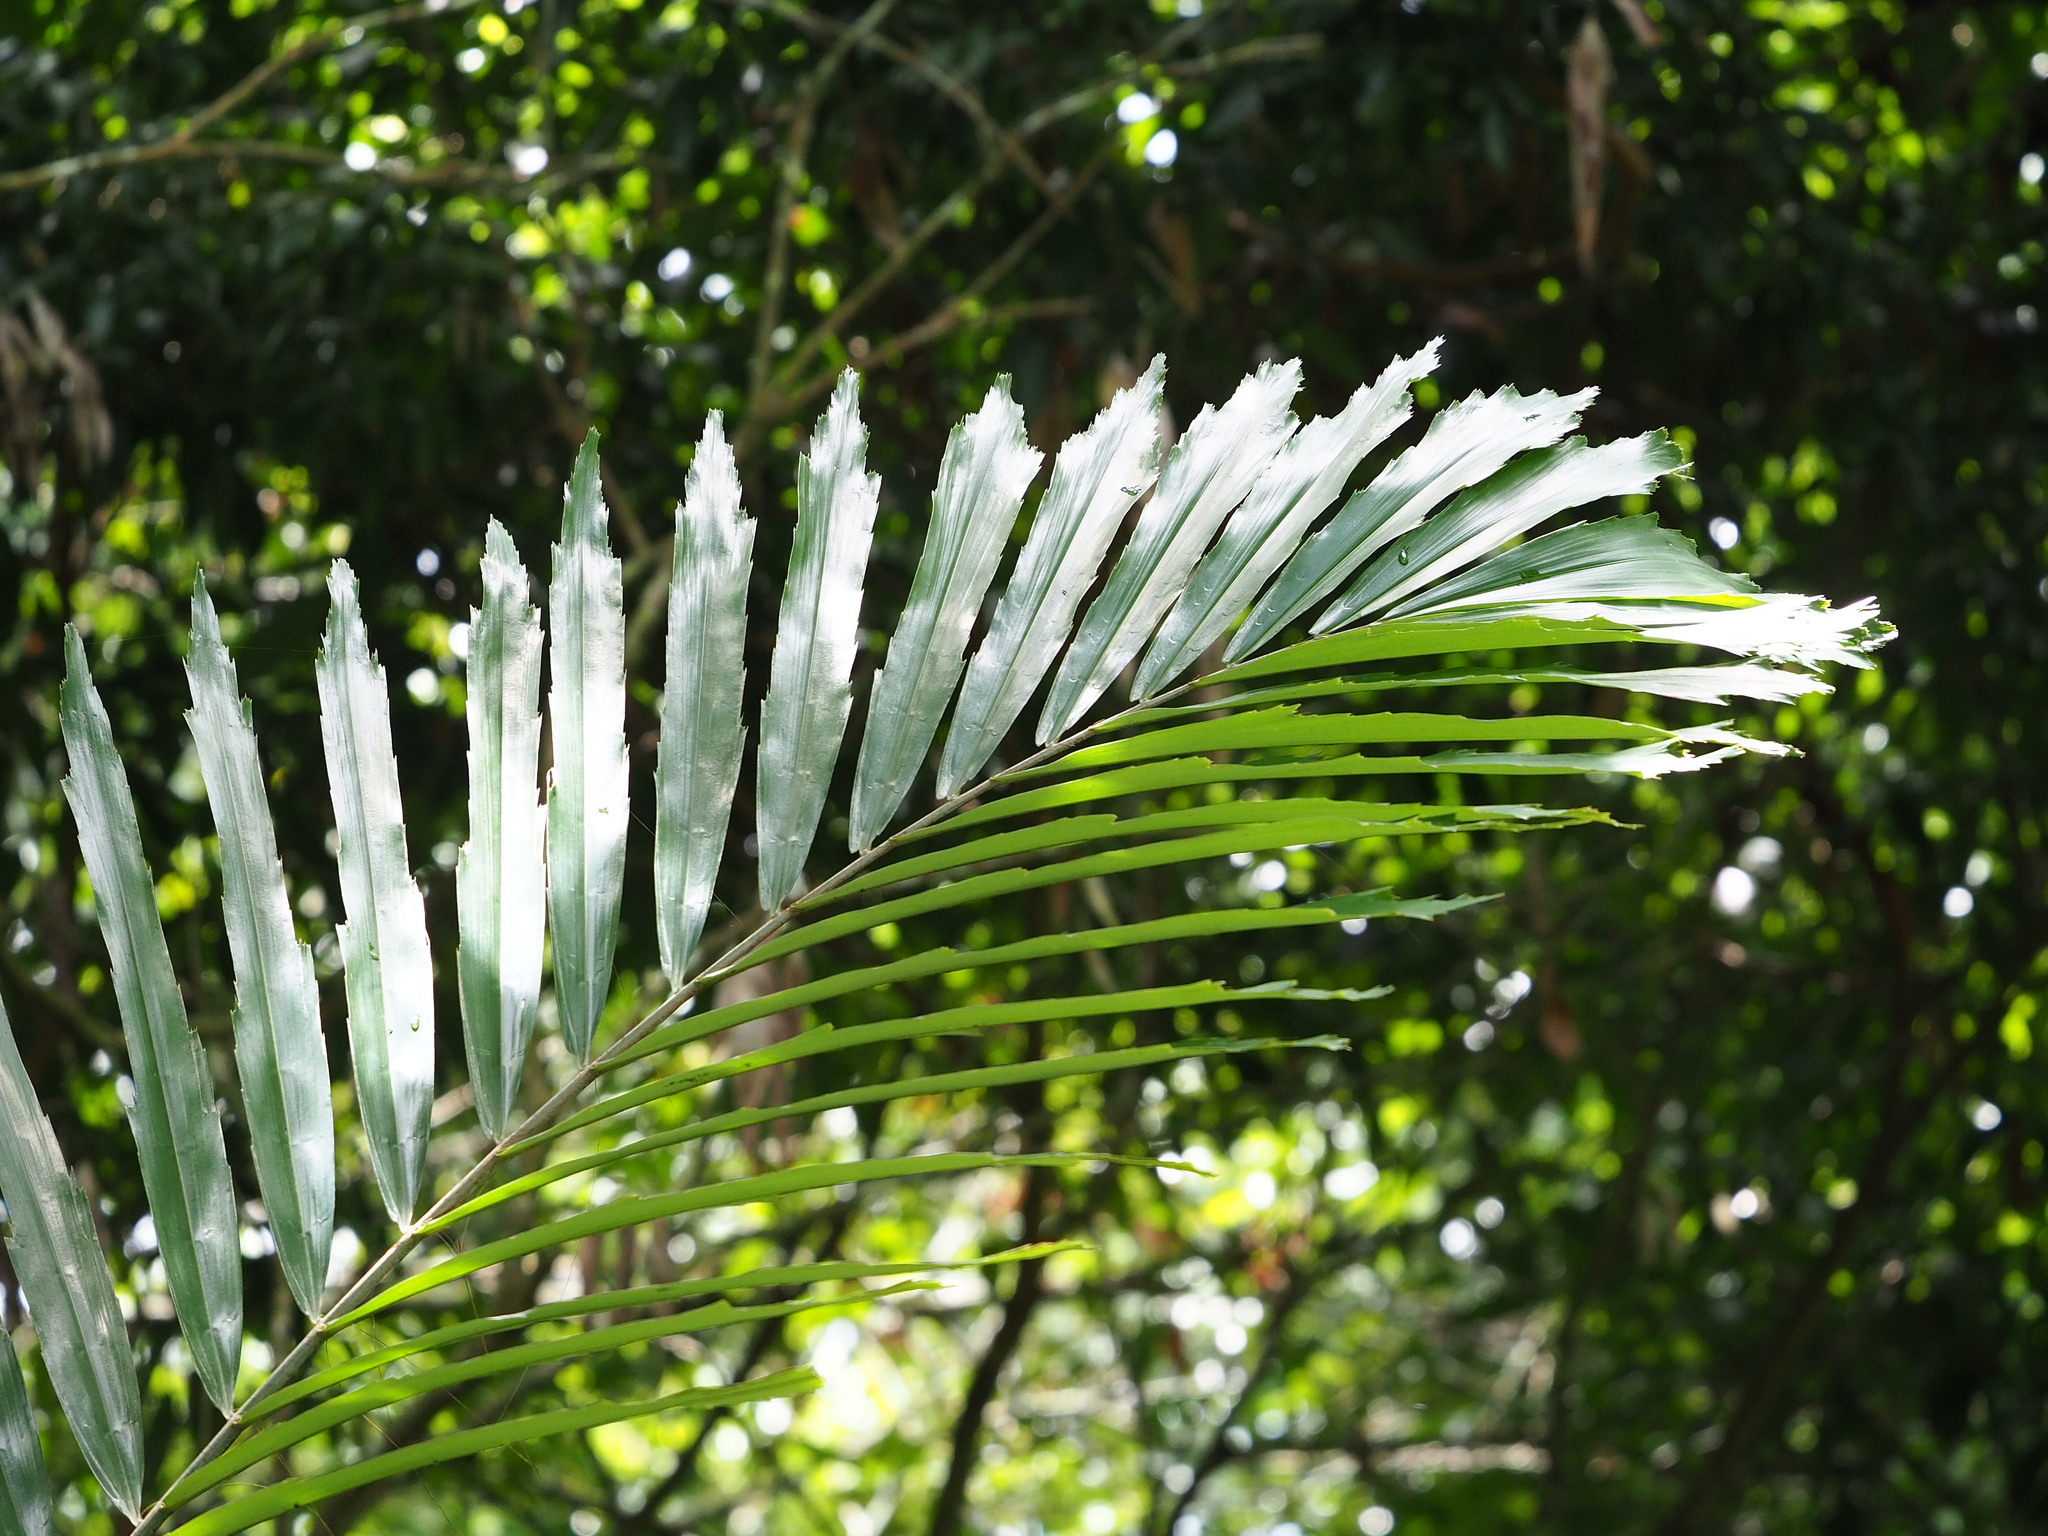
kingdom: Plantae
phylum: Tracheophyta
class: Liliopsida
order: Arecales
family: Arecaceae
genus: Arenga
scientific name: Arenga engleri
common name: Formosan sugar palm
